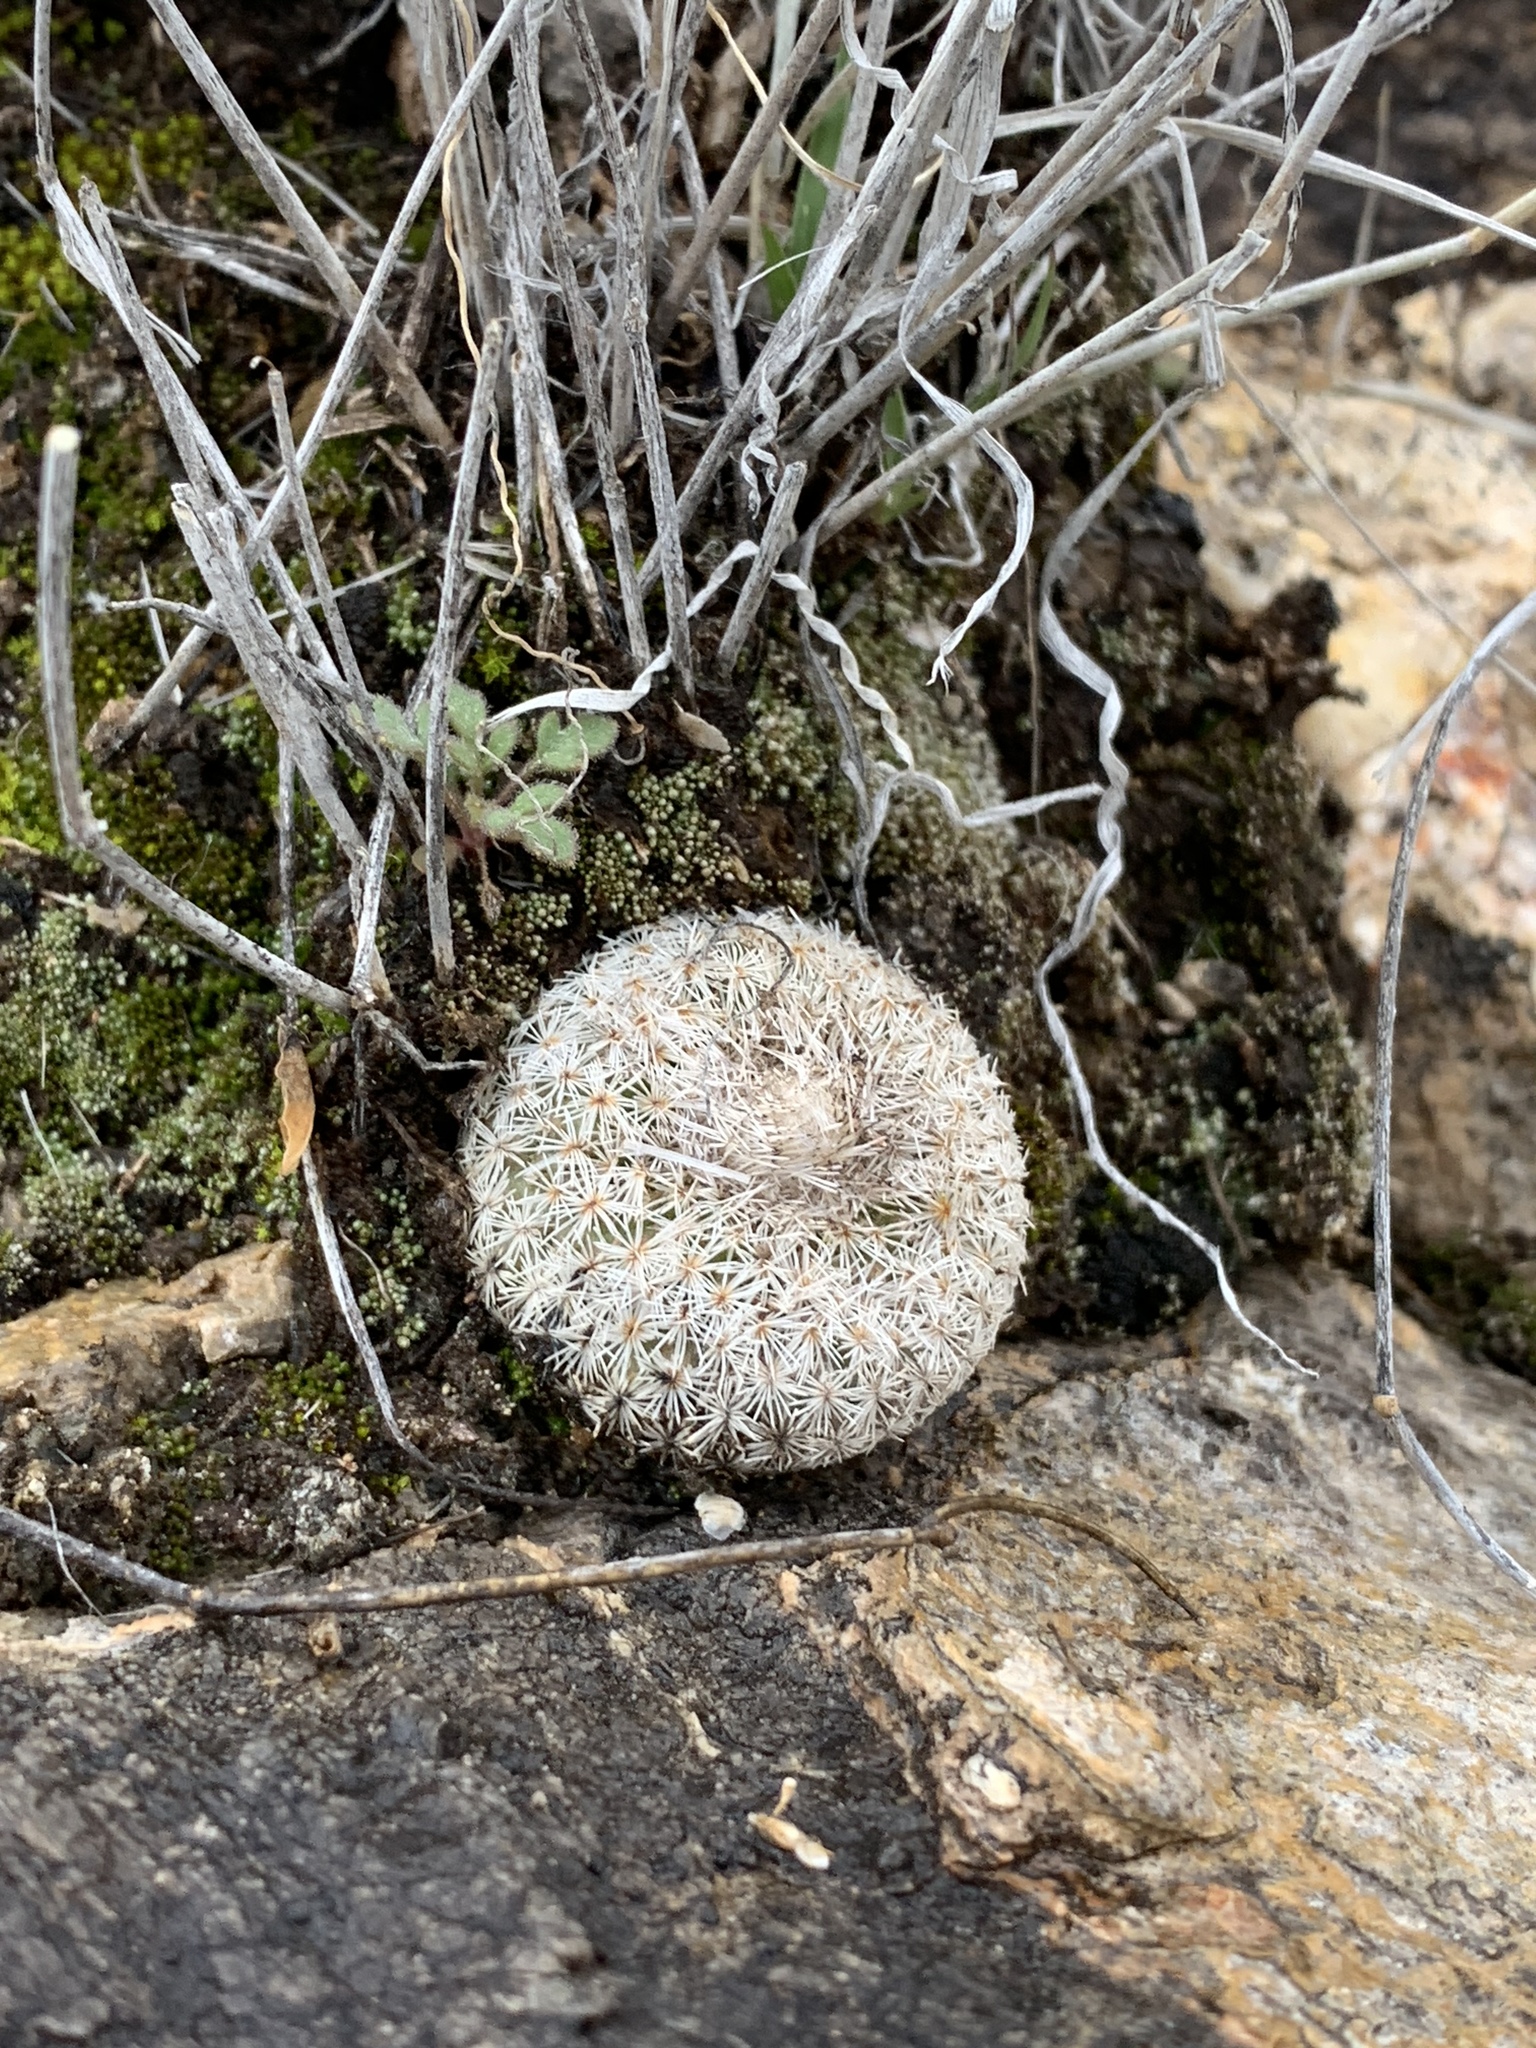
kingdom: Plantae
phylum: Tracheophyta
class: Magnoliopsida
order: Caryophyllales
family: Cactaceae
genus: Epithelantha
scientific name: Epithelantha micromeris
